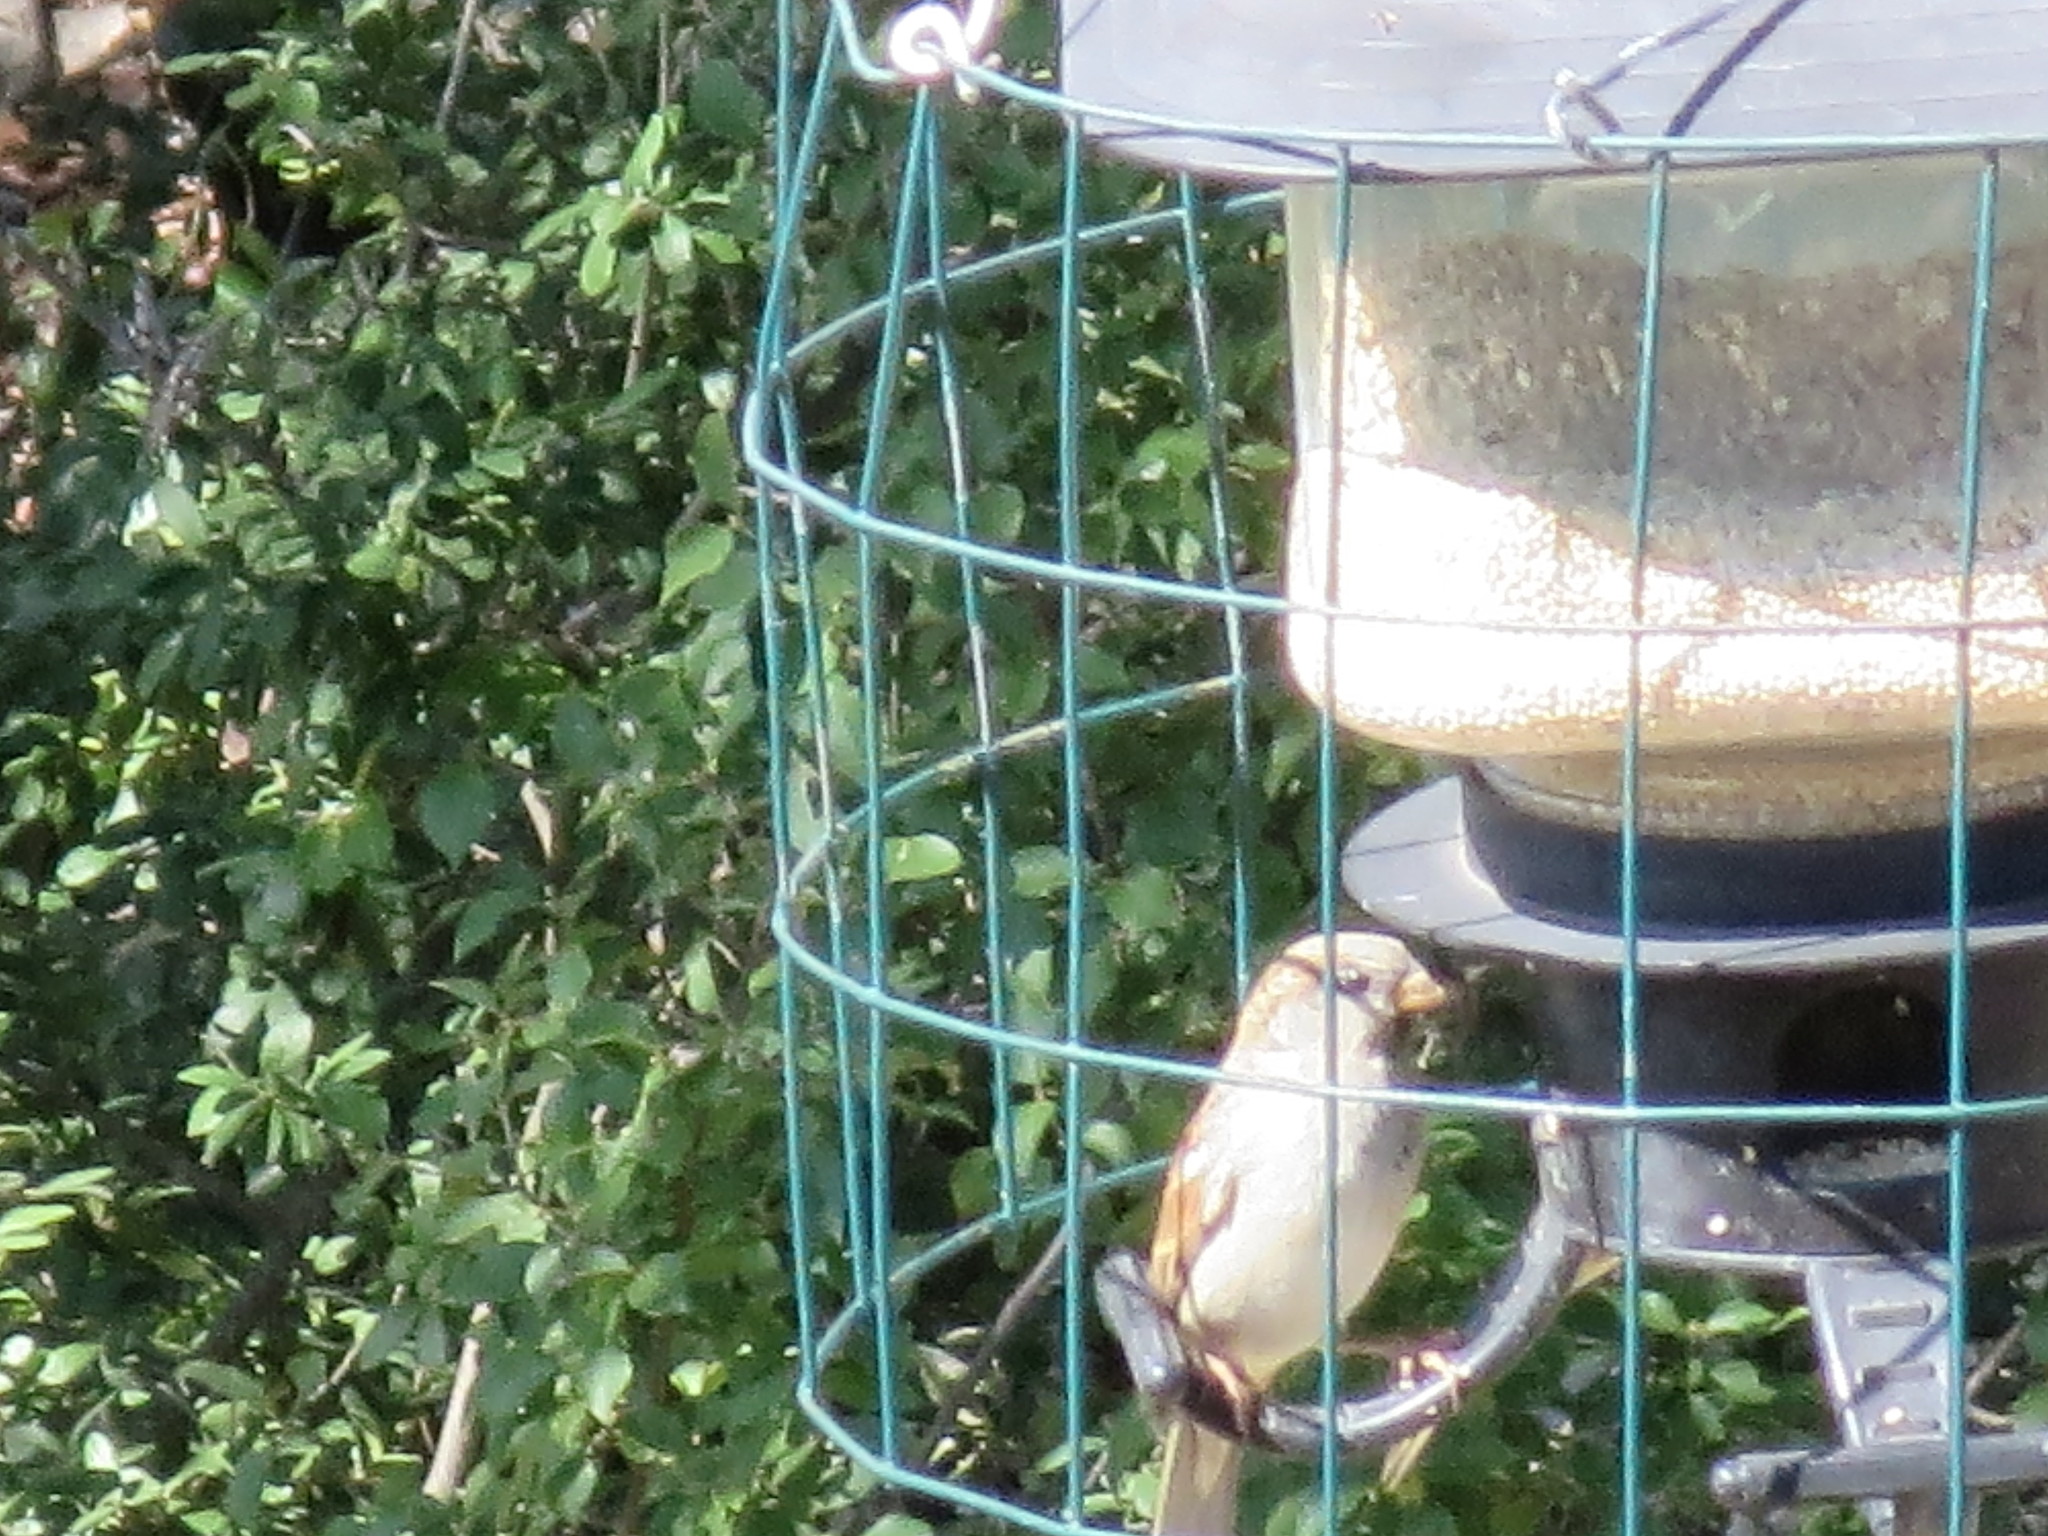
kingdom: Animalia
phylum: Chordata
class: Aves
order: Passeriformes
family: Passeridae
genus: Passer
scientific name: Passer domesticus
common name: House sparrow
